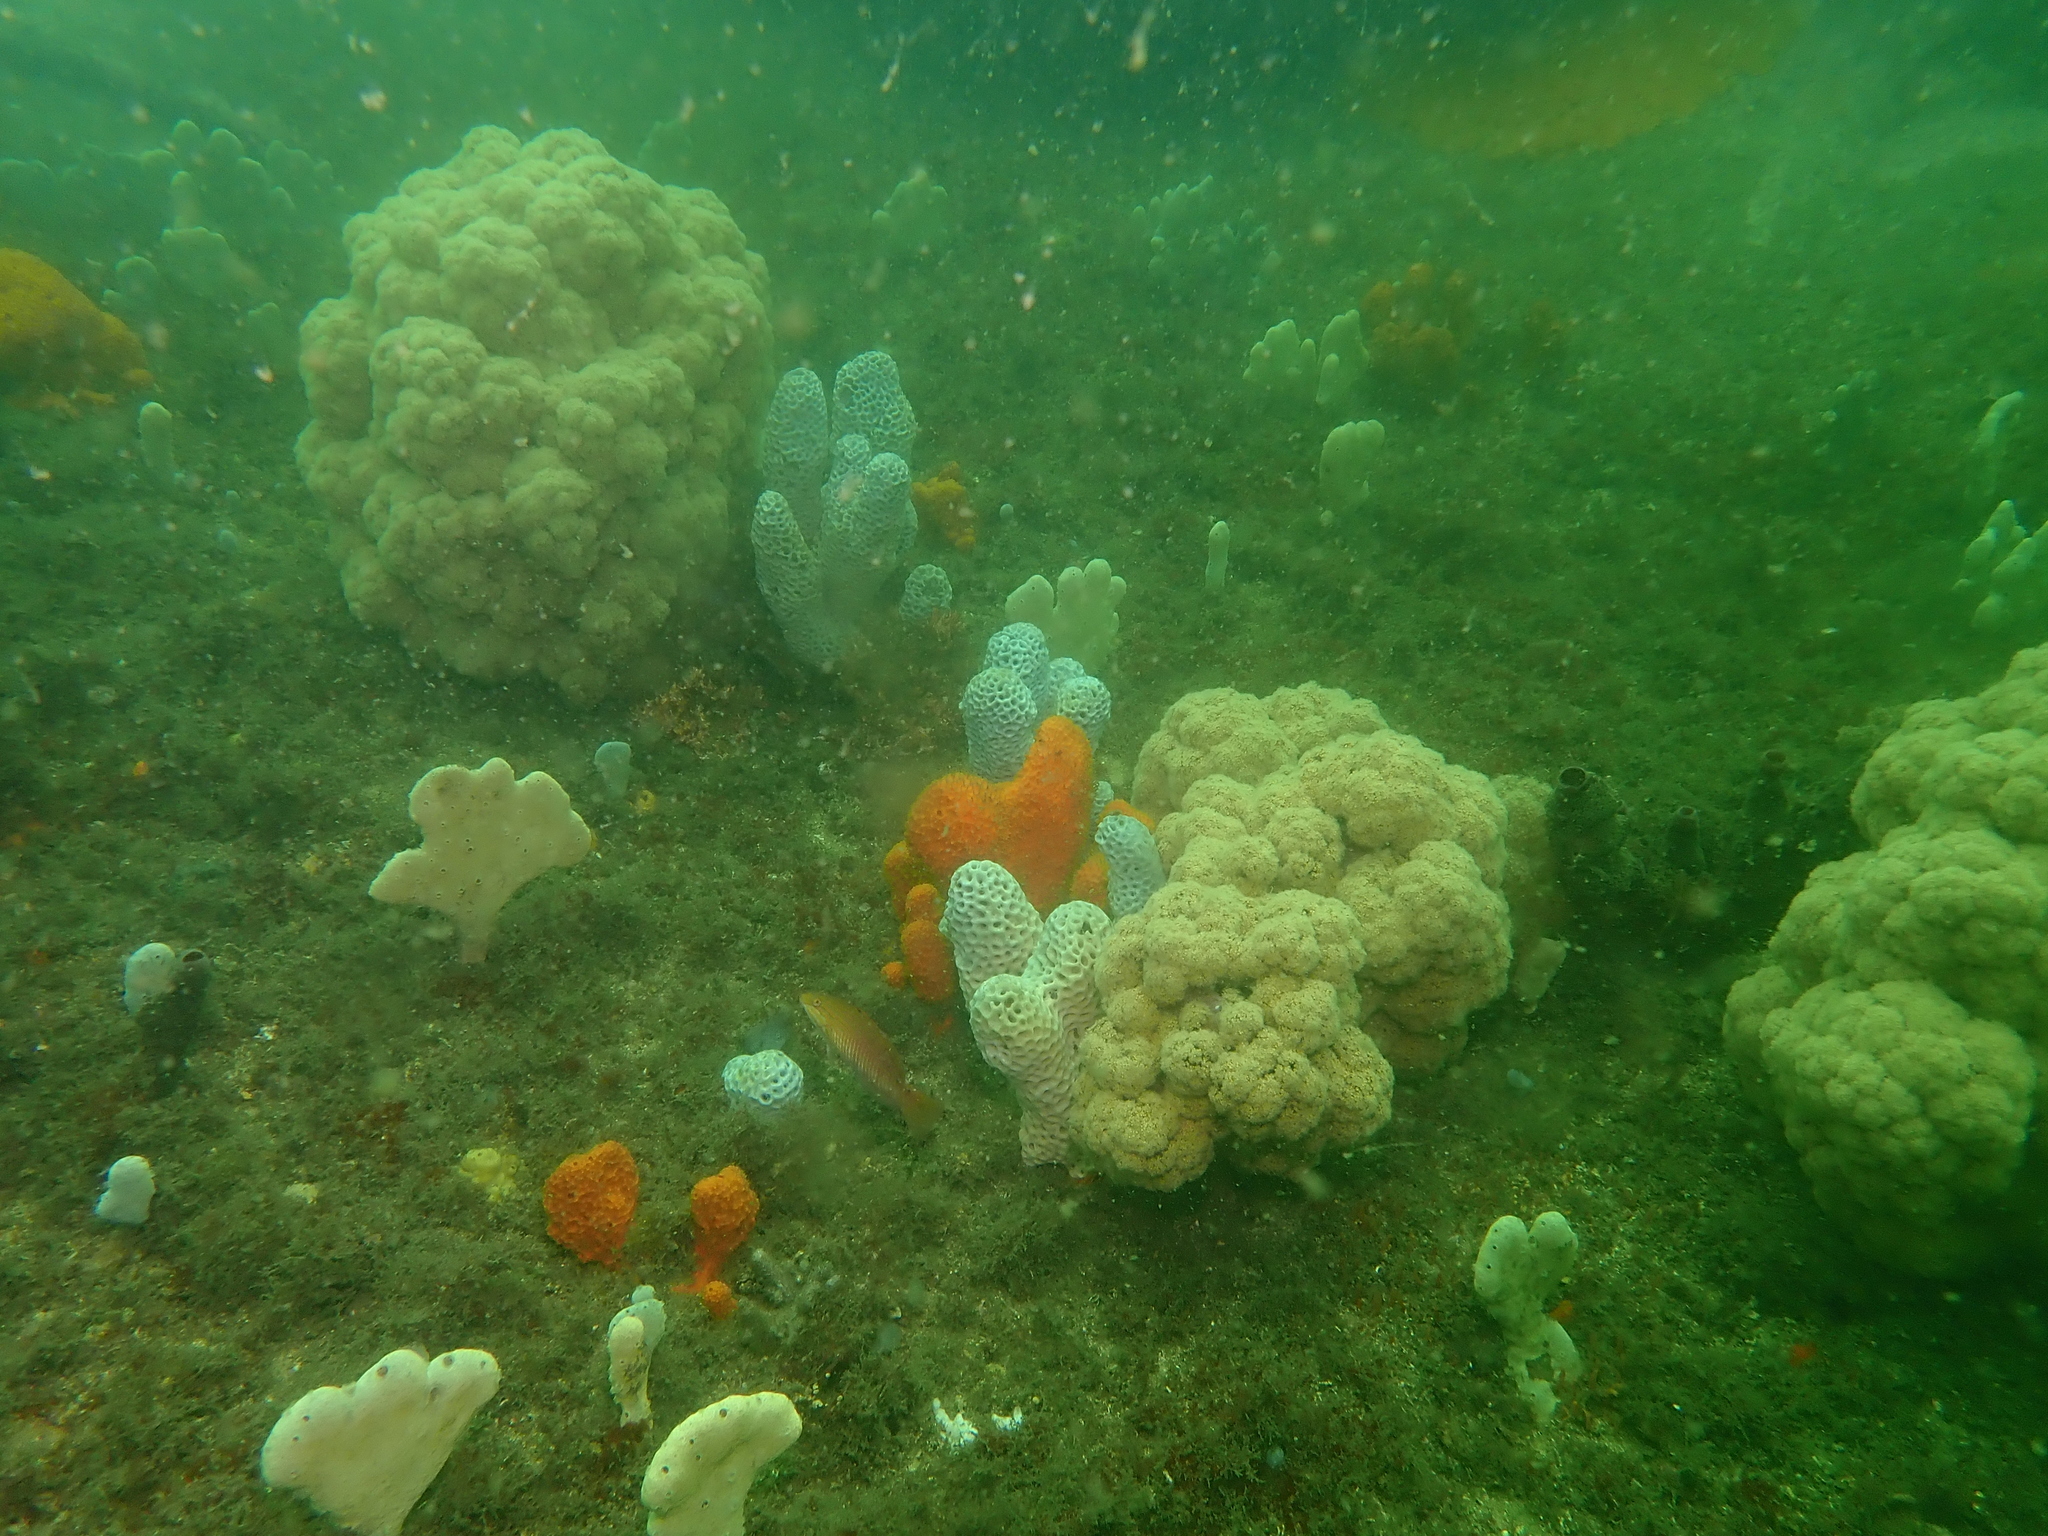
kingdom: Animalia
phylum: Cnidaria
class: Anthozoa
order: Malacalcyonacea
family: Nephtheidae
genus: Dendronephthya
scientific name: Dendronephthya australis
